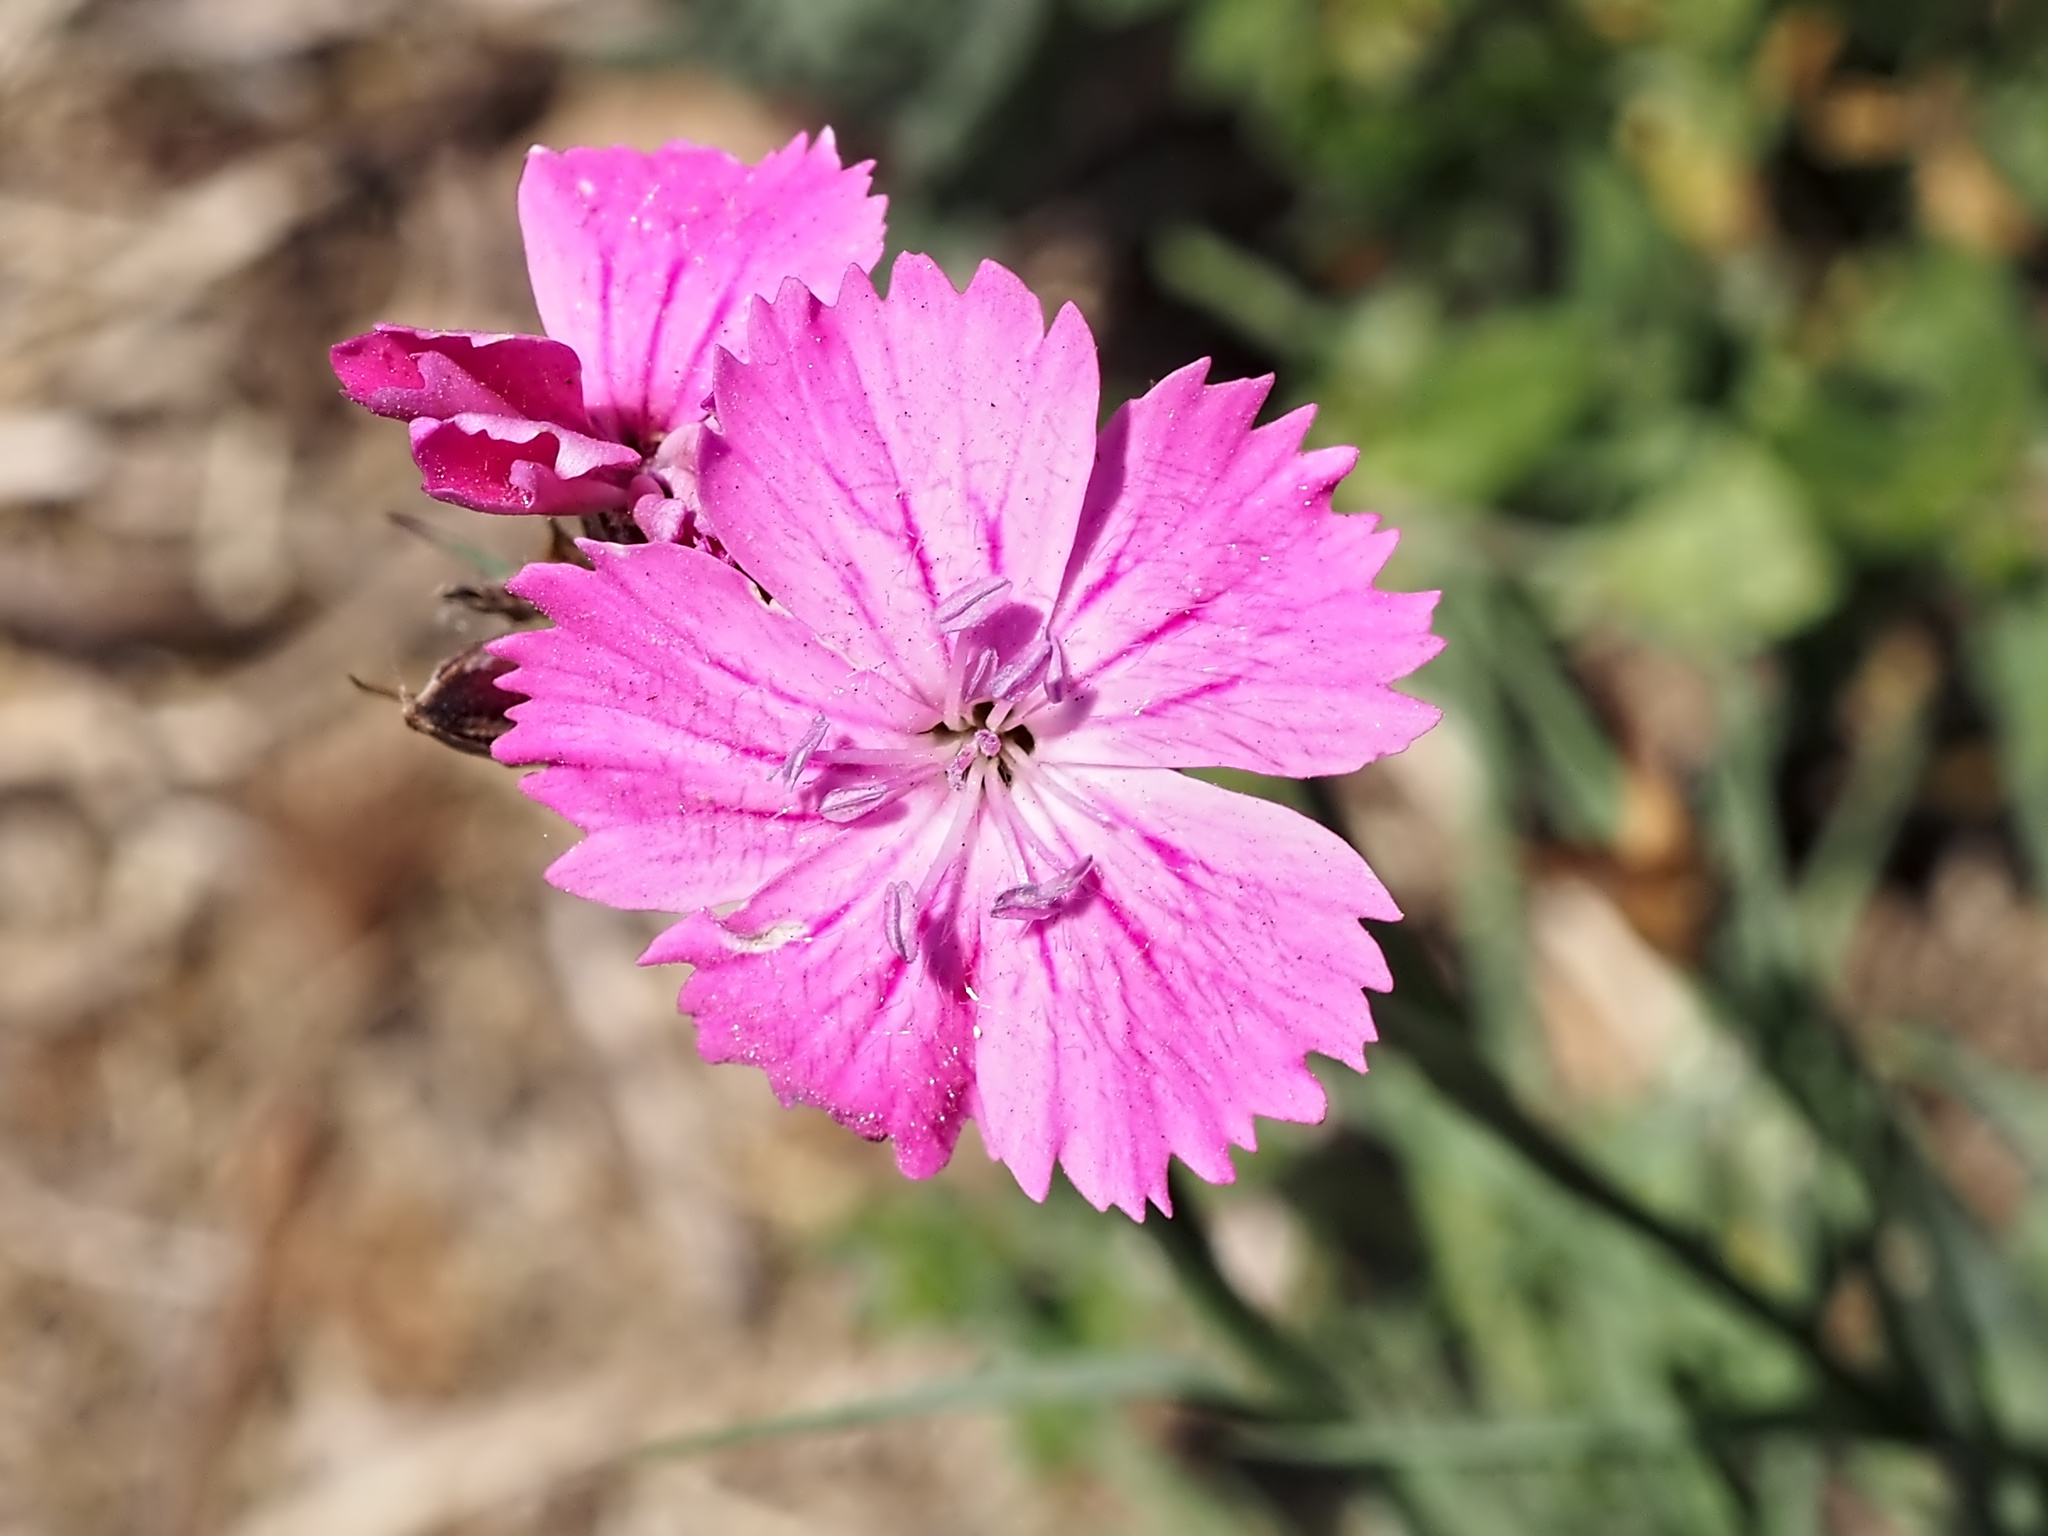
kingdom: Plantae
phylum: Tracheophyta
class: Magnoliopsida
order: Caryophyllales
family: Caryophyllaceae
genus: Dianthus
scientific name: Dianthus carthusianorum
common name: Carthusian pink
